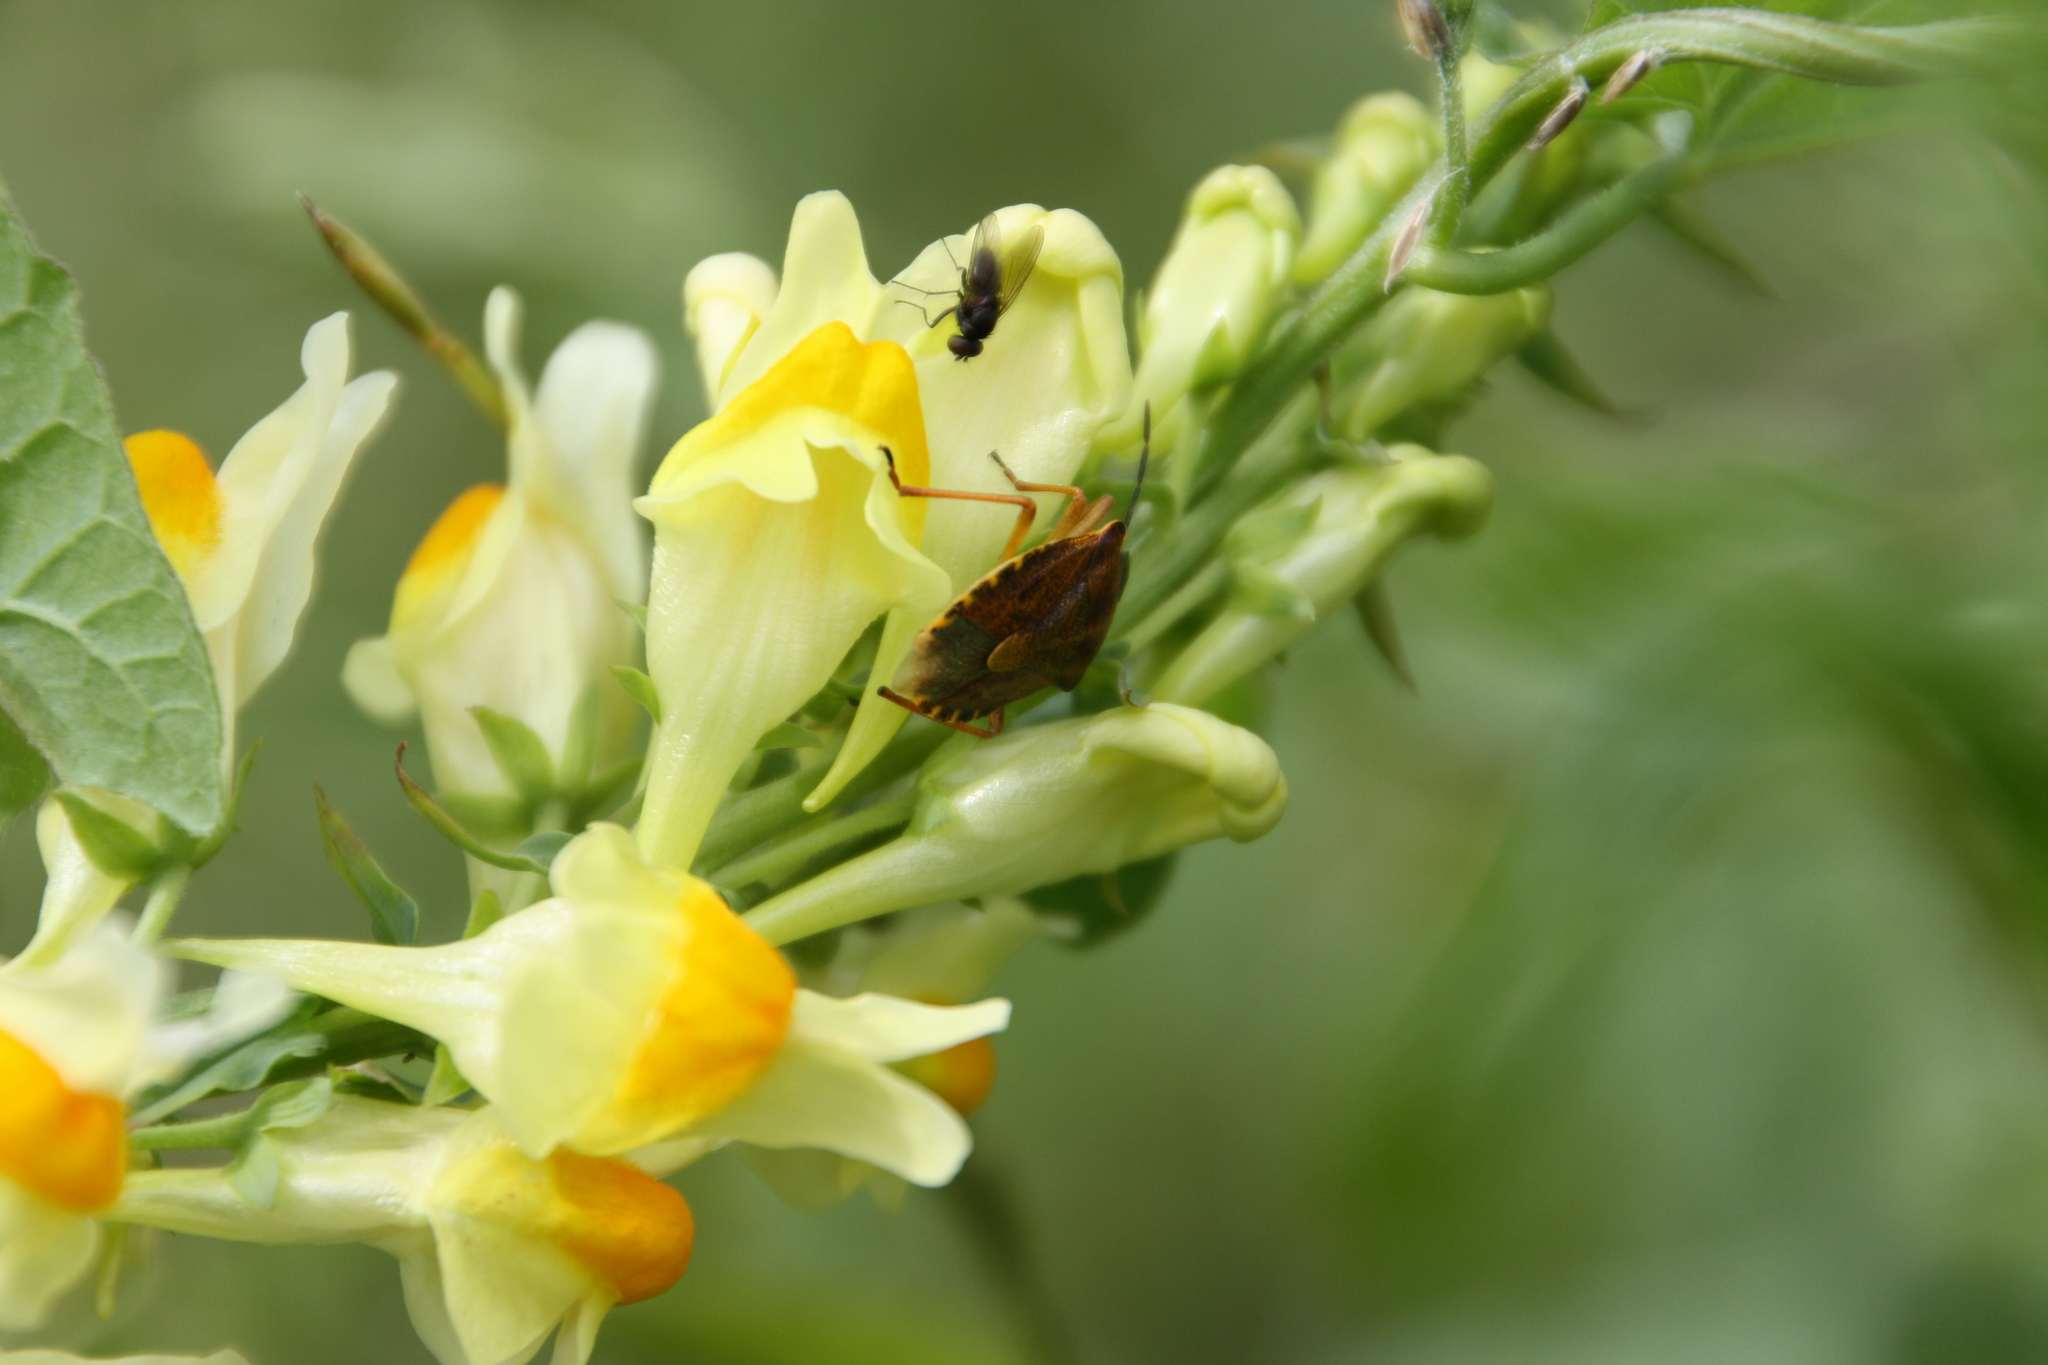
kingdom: Plantae
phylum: Tracheophyta
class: Magnoliopsida
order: Lamiales
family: Plantaginaceae
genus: Linaria
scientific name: Linaria vulgaris
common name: Butter and eggs
